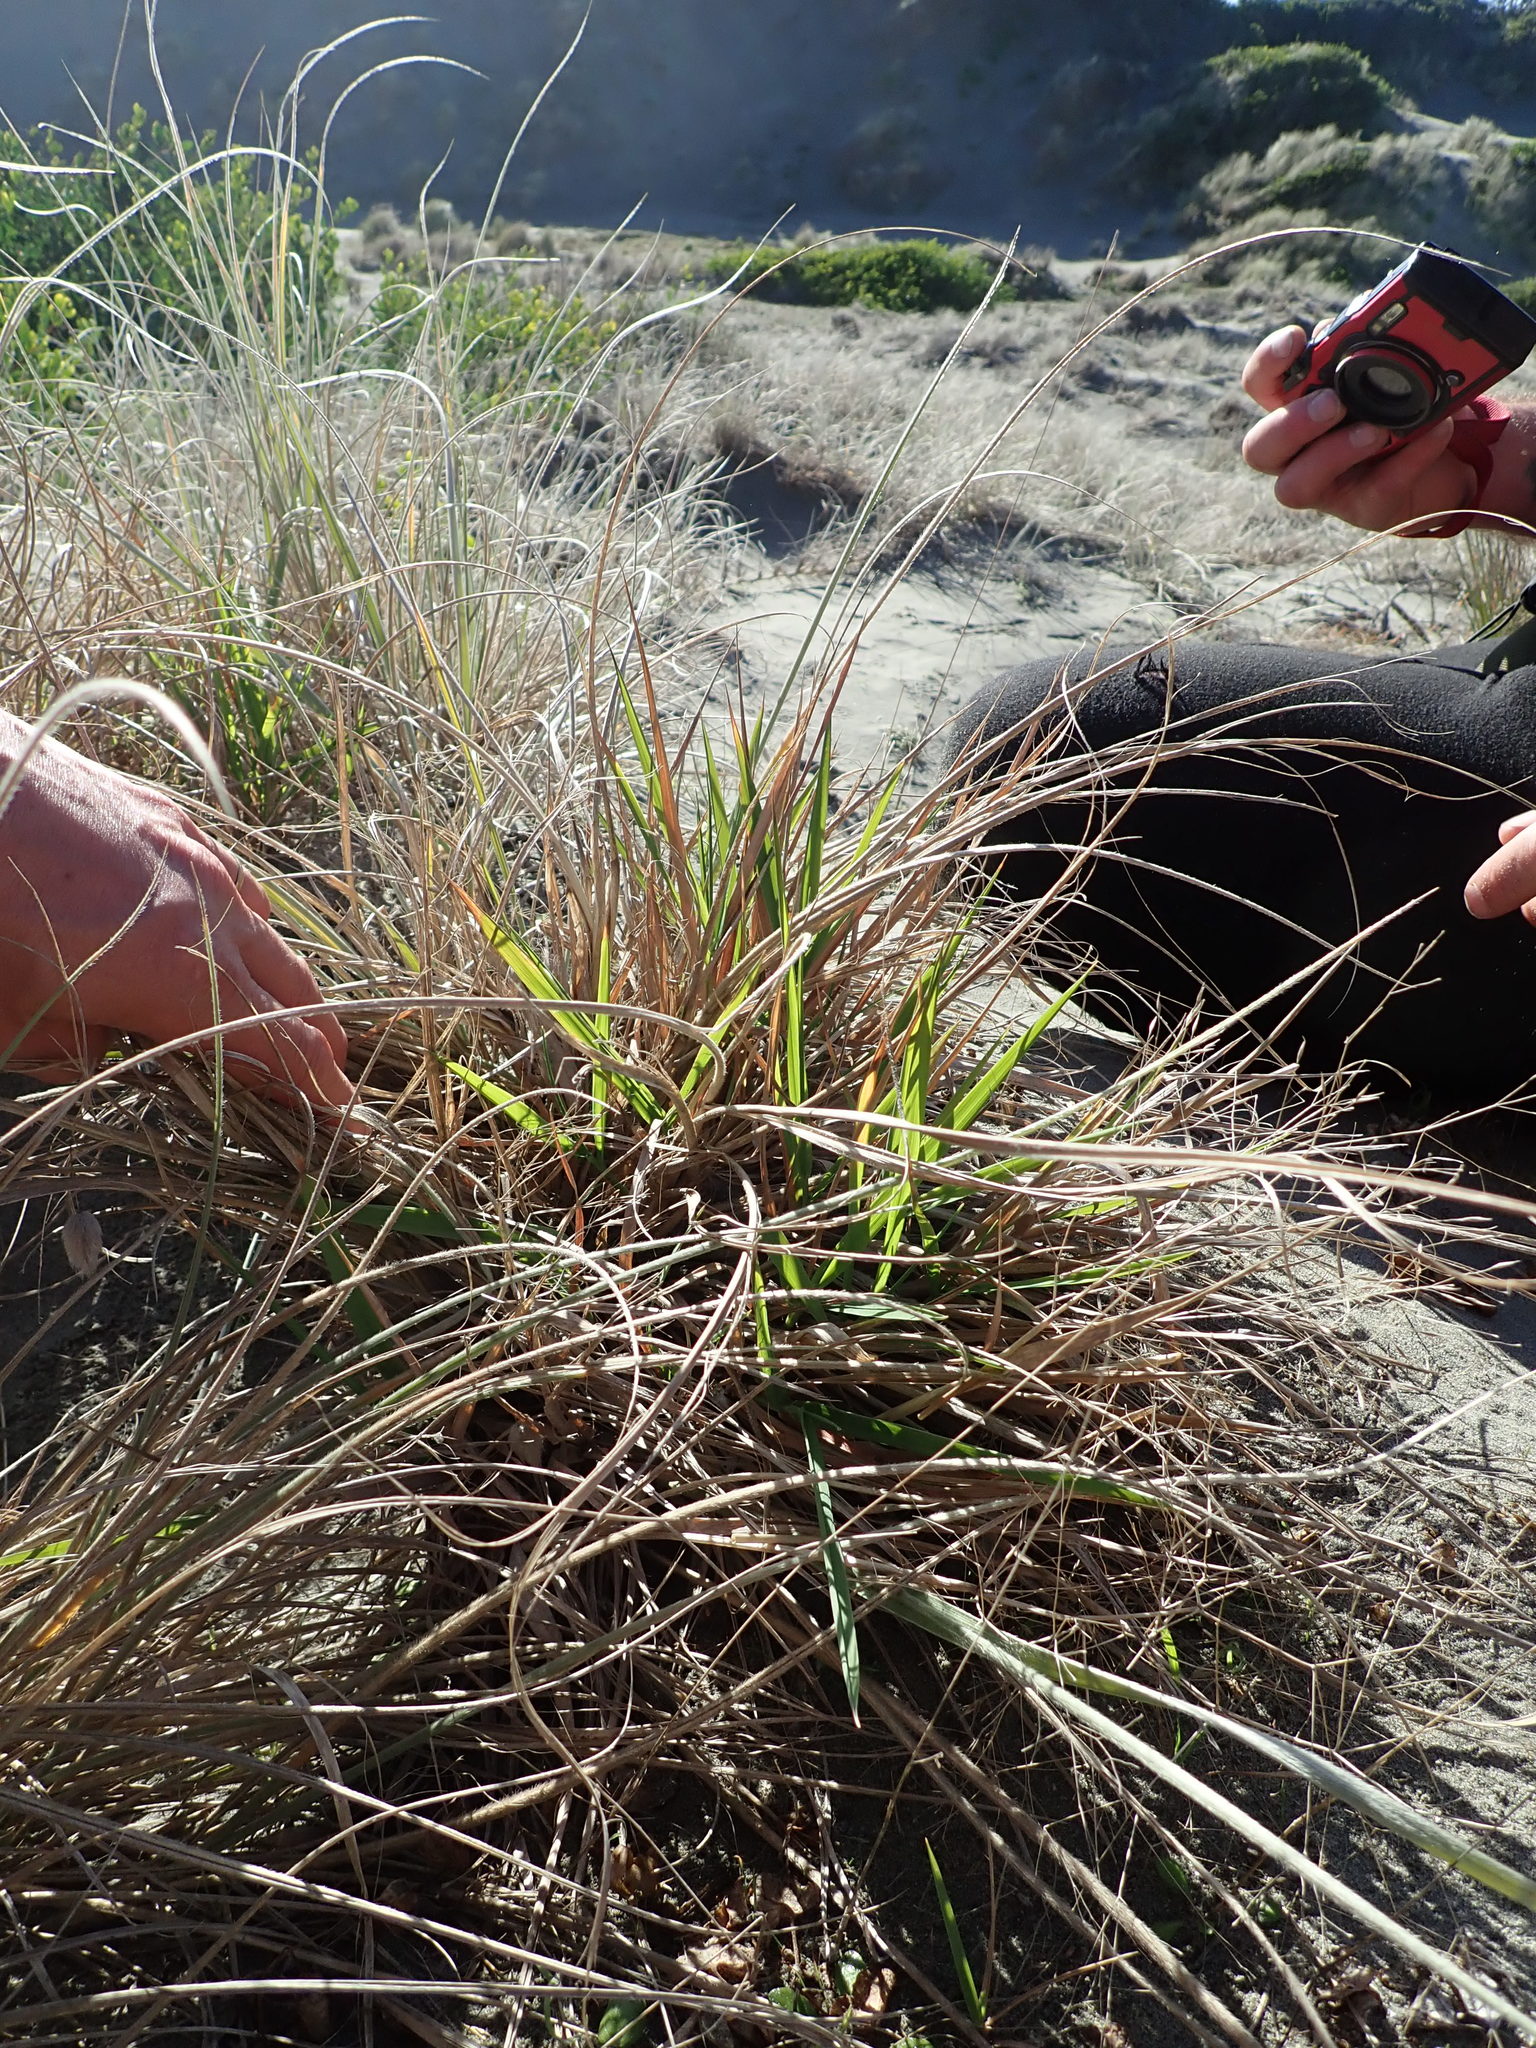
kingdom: Plantae
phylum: Tracheophyta
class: Liliopsida
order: Poales
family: Poaceae
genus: Lachnagrostis
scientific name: Lachnagrostis billardierei
